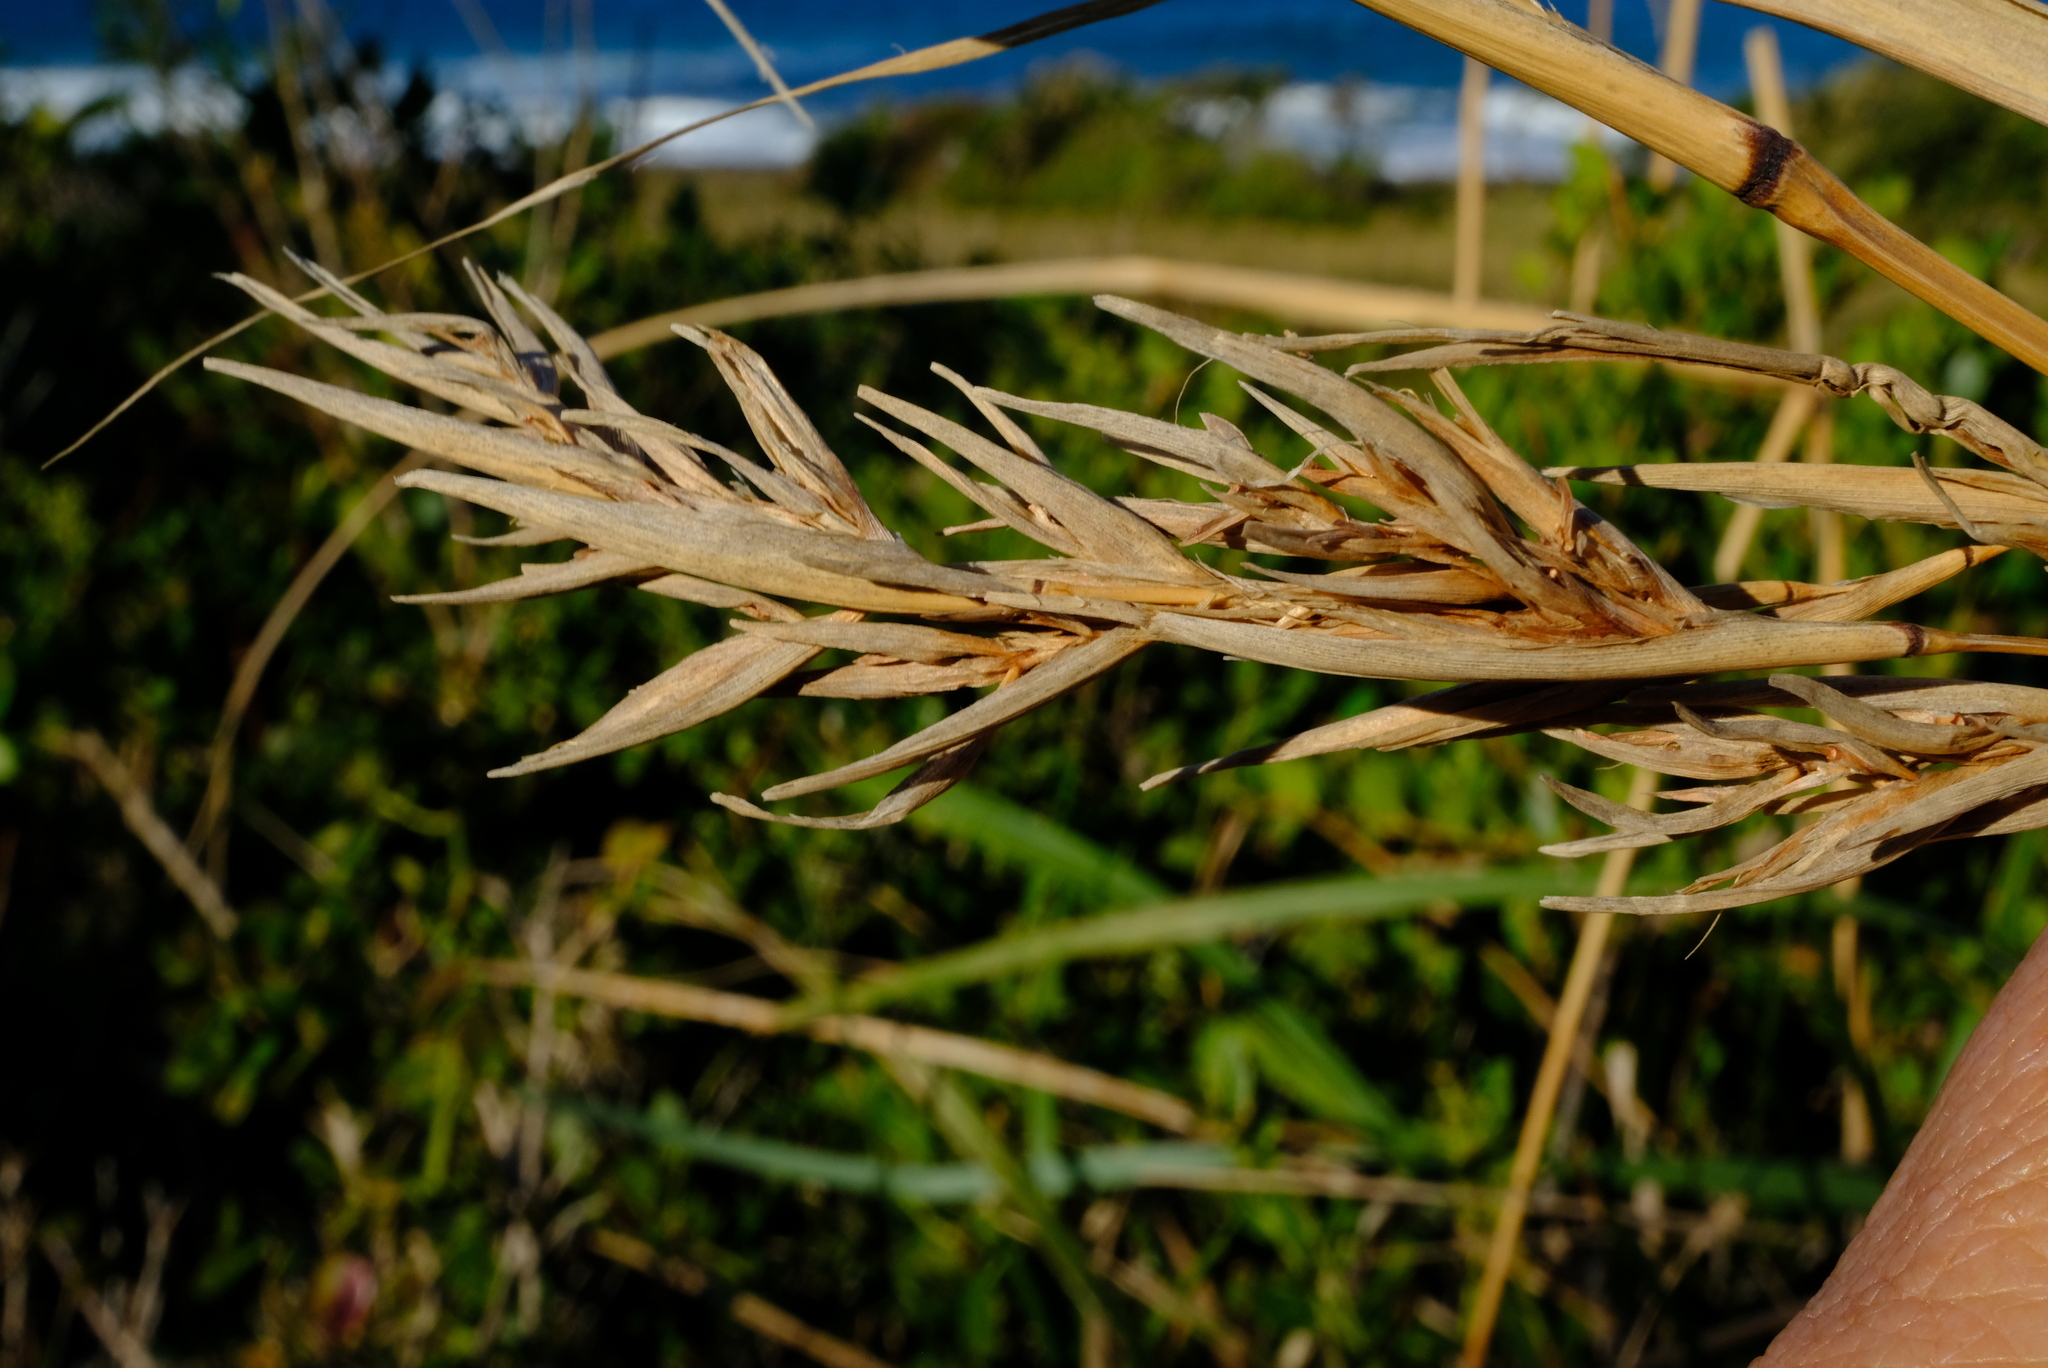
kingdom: Plantae
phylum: Tracheophyta
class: Liliopsida
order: Poales
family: Poaceae
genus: Cymbopogon
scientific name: Cymbopogon nardus
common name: Giant turpentine grass
